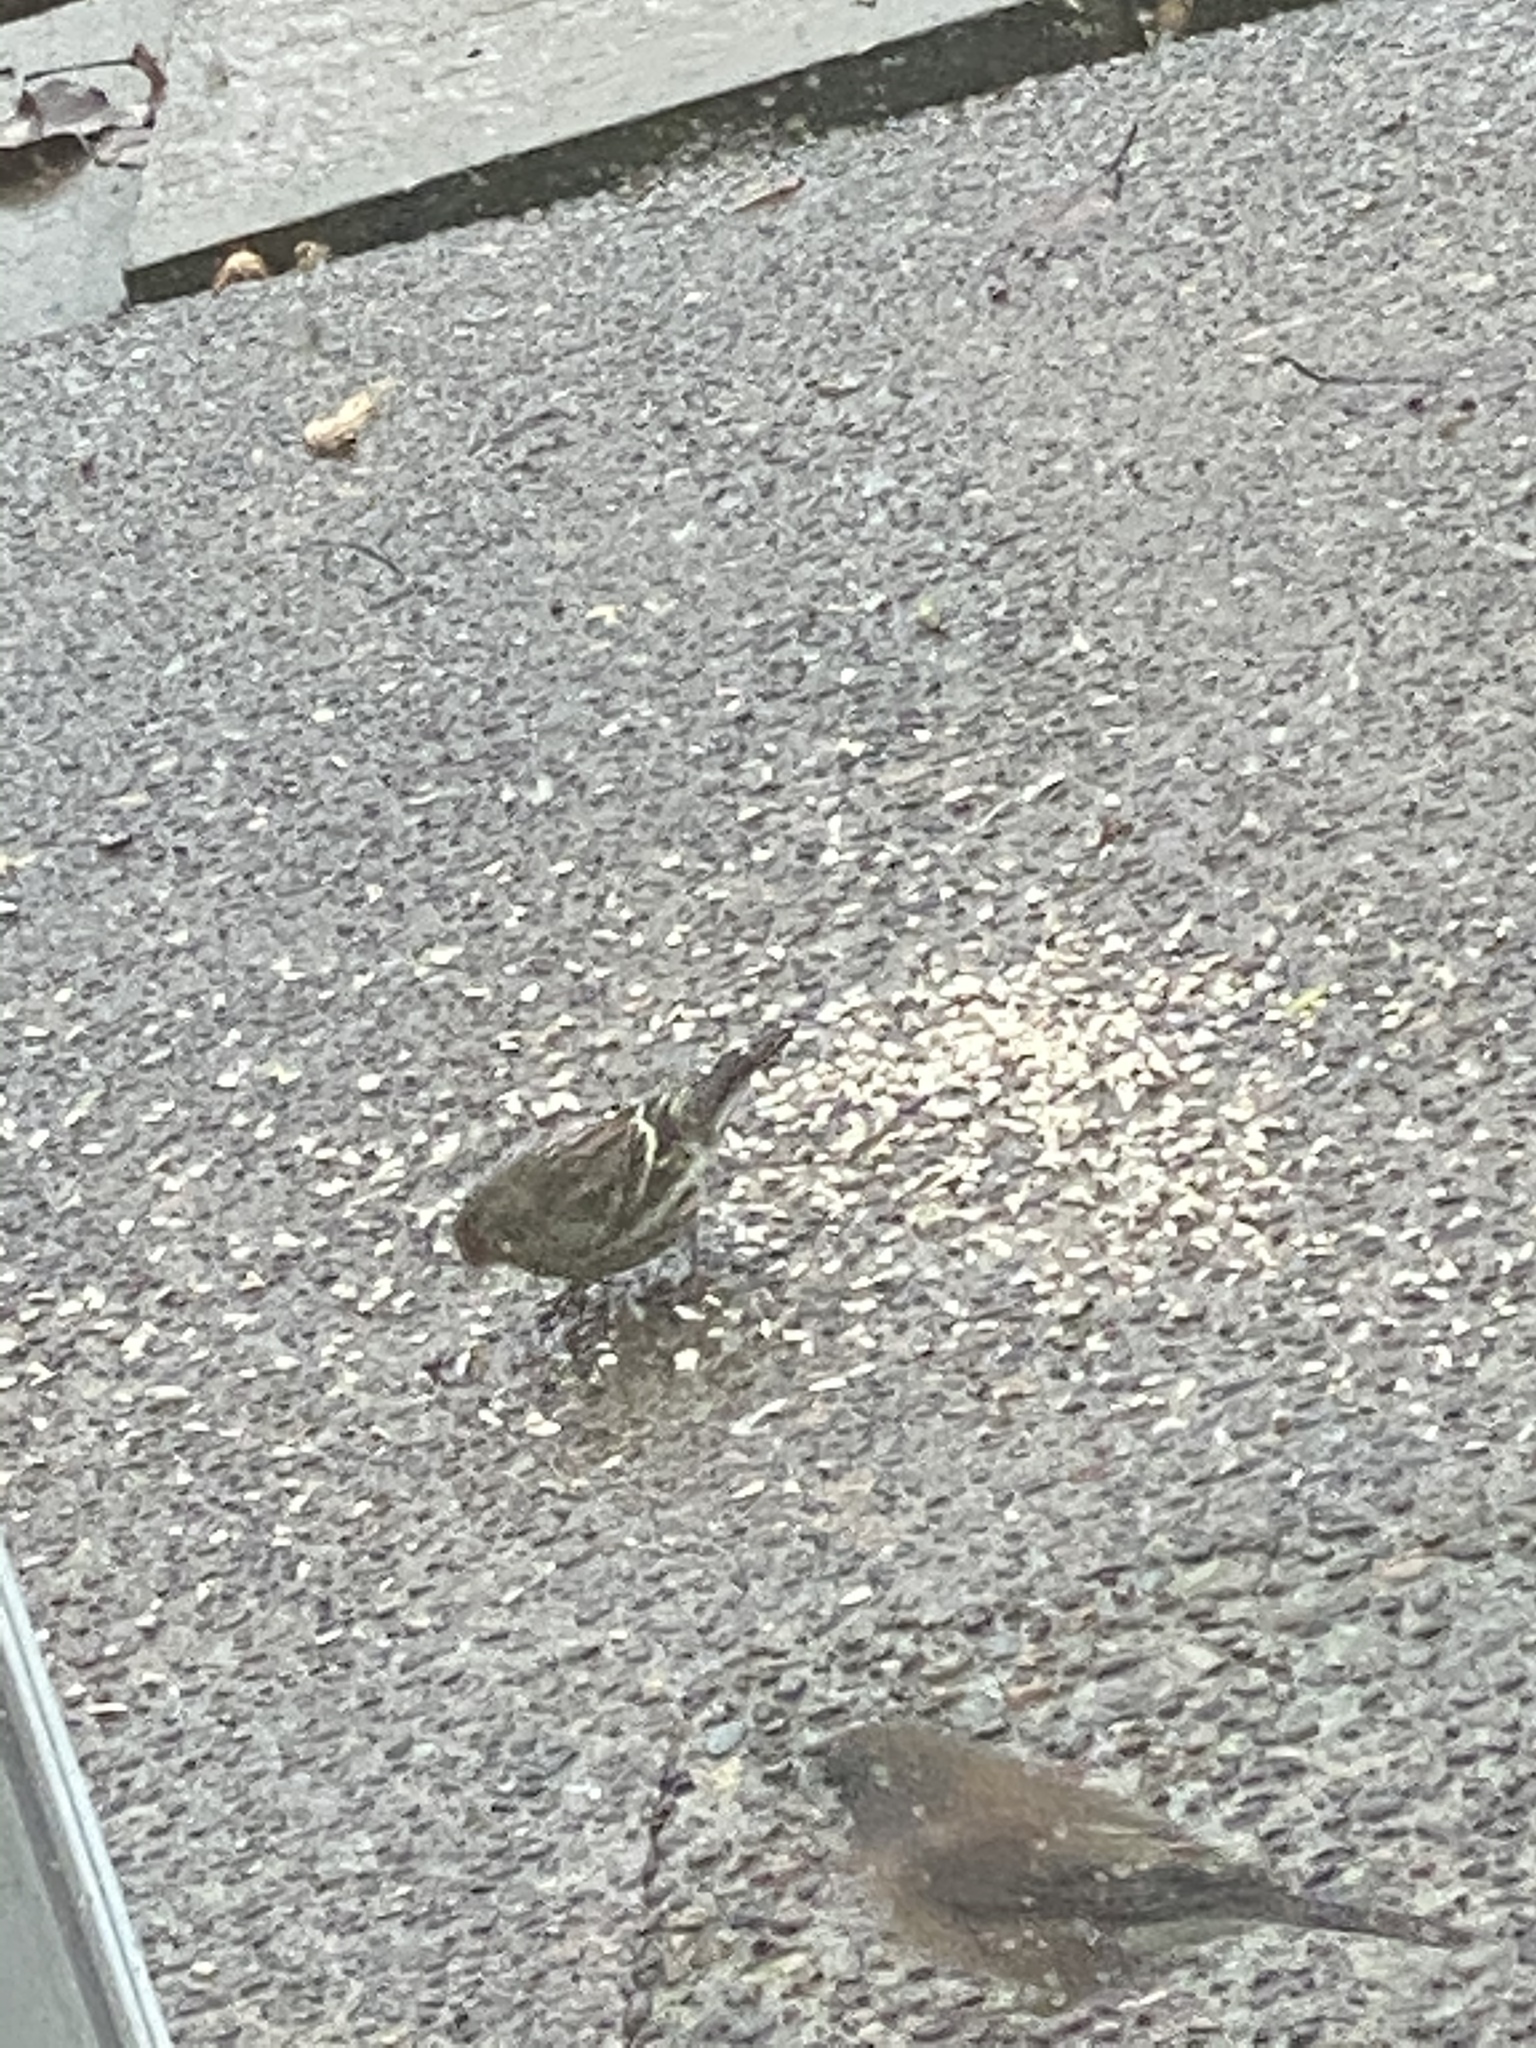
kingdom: Animalia
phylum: Chordata
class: Aves
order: Passeriformes
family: Fringillidae
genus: Spinus
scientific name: Spinus pinus
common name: Pine siskin
